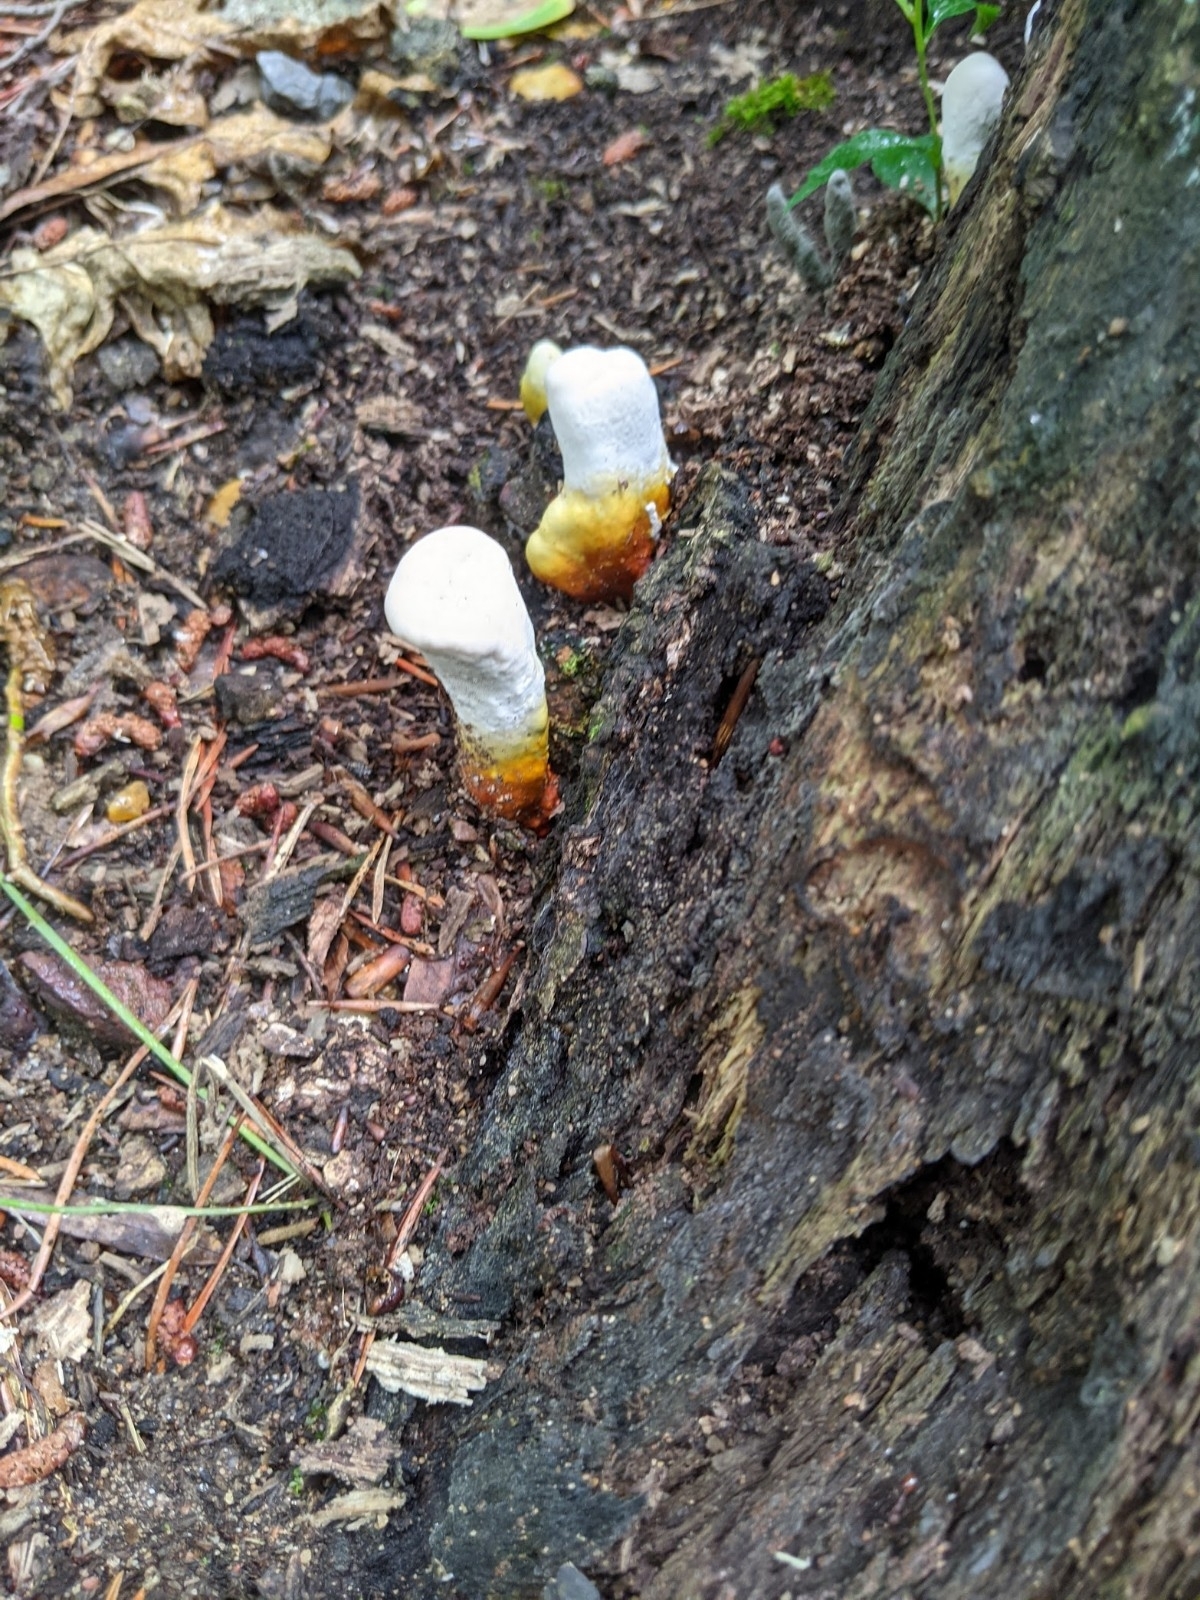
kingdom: Fungi
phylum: Basidiomycota
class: Agaricomycetes
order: Polyporales
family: Polyporaceae
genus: Ganoderma
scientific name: Ganoderma curtisii
